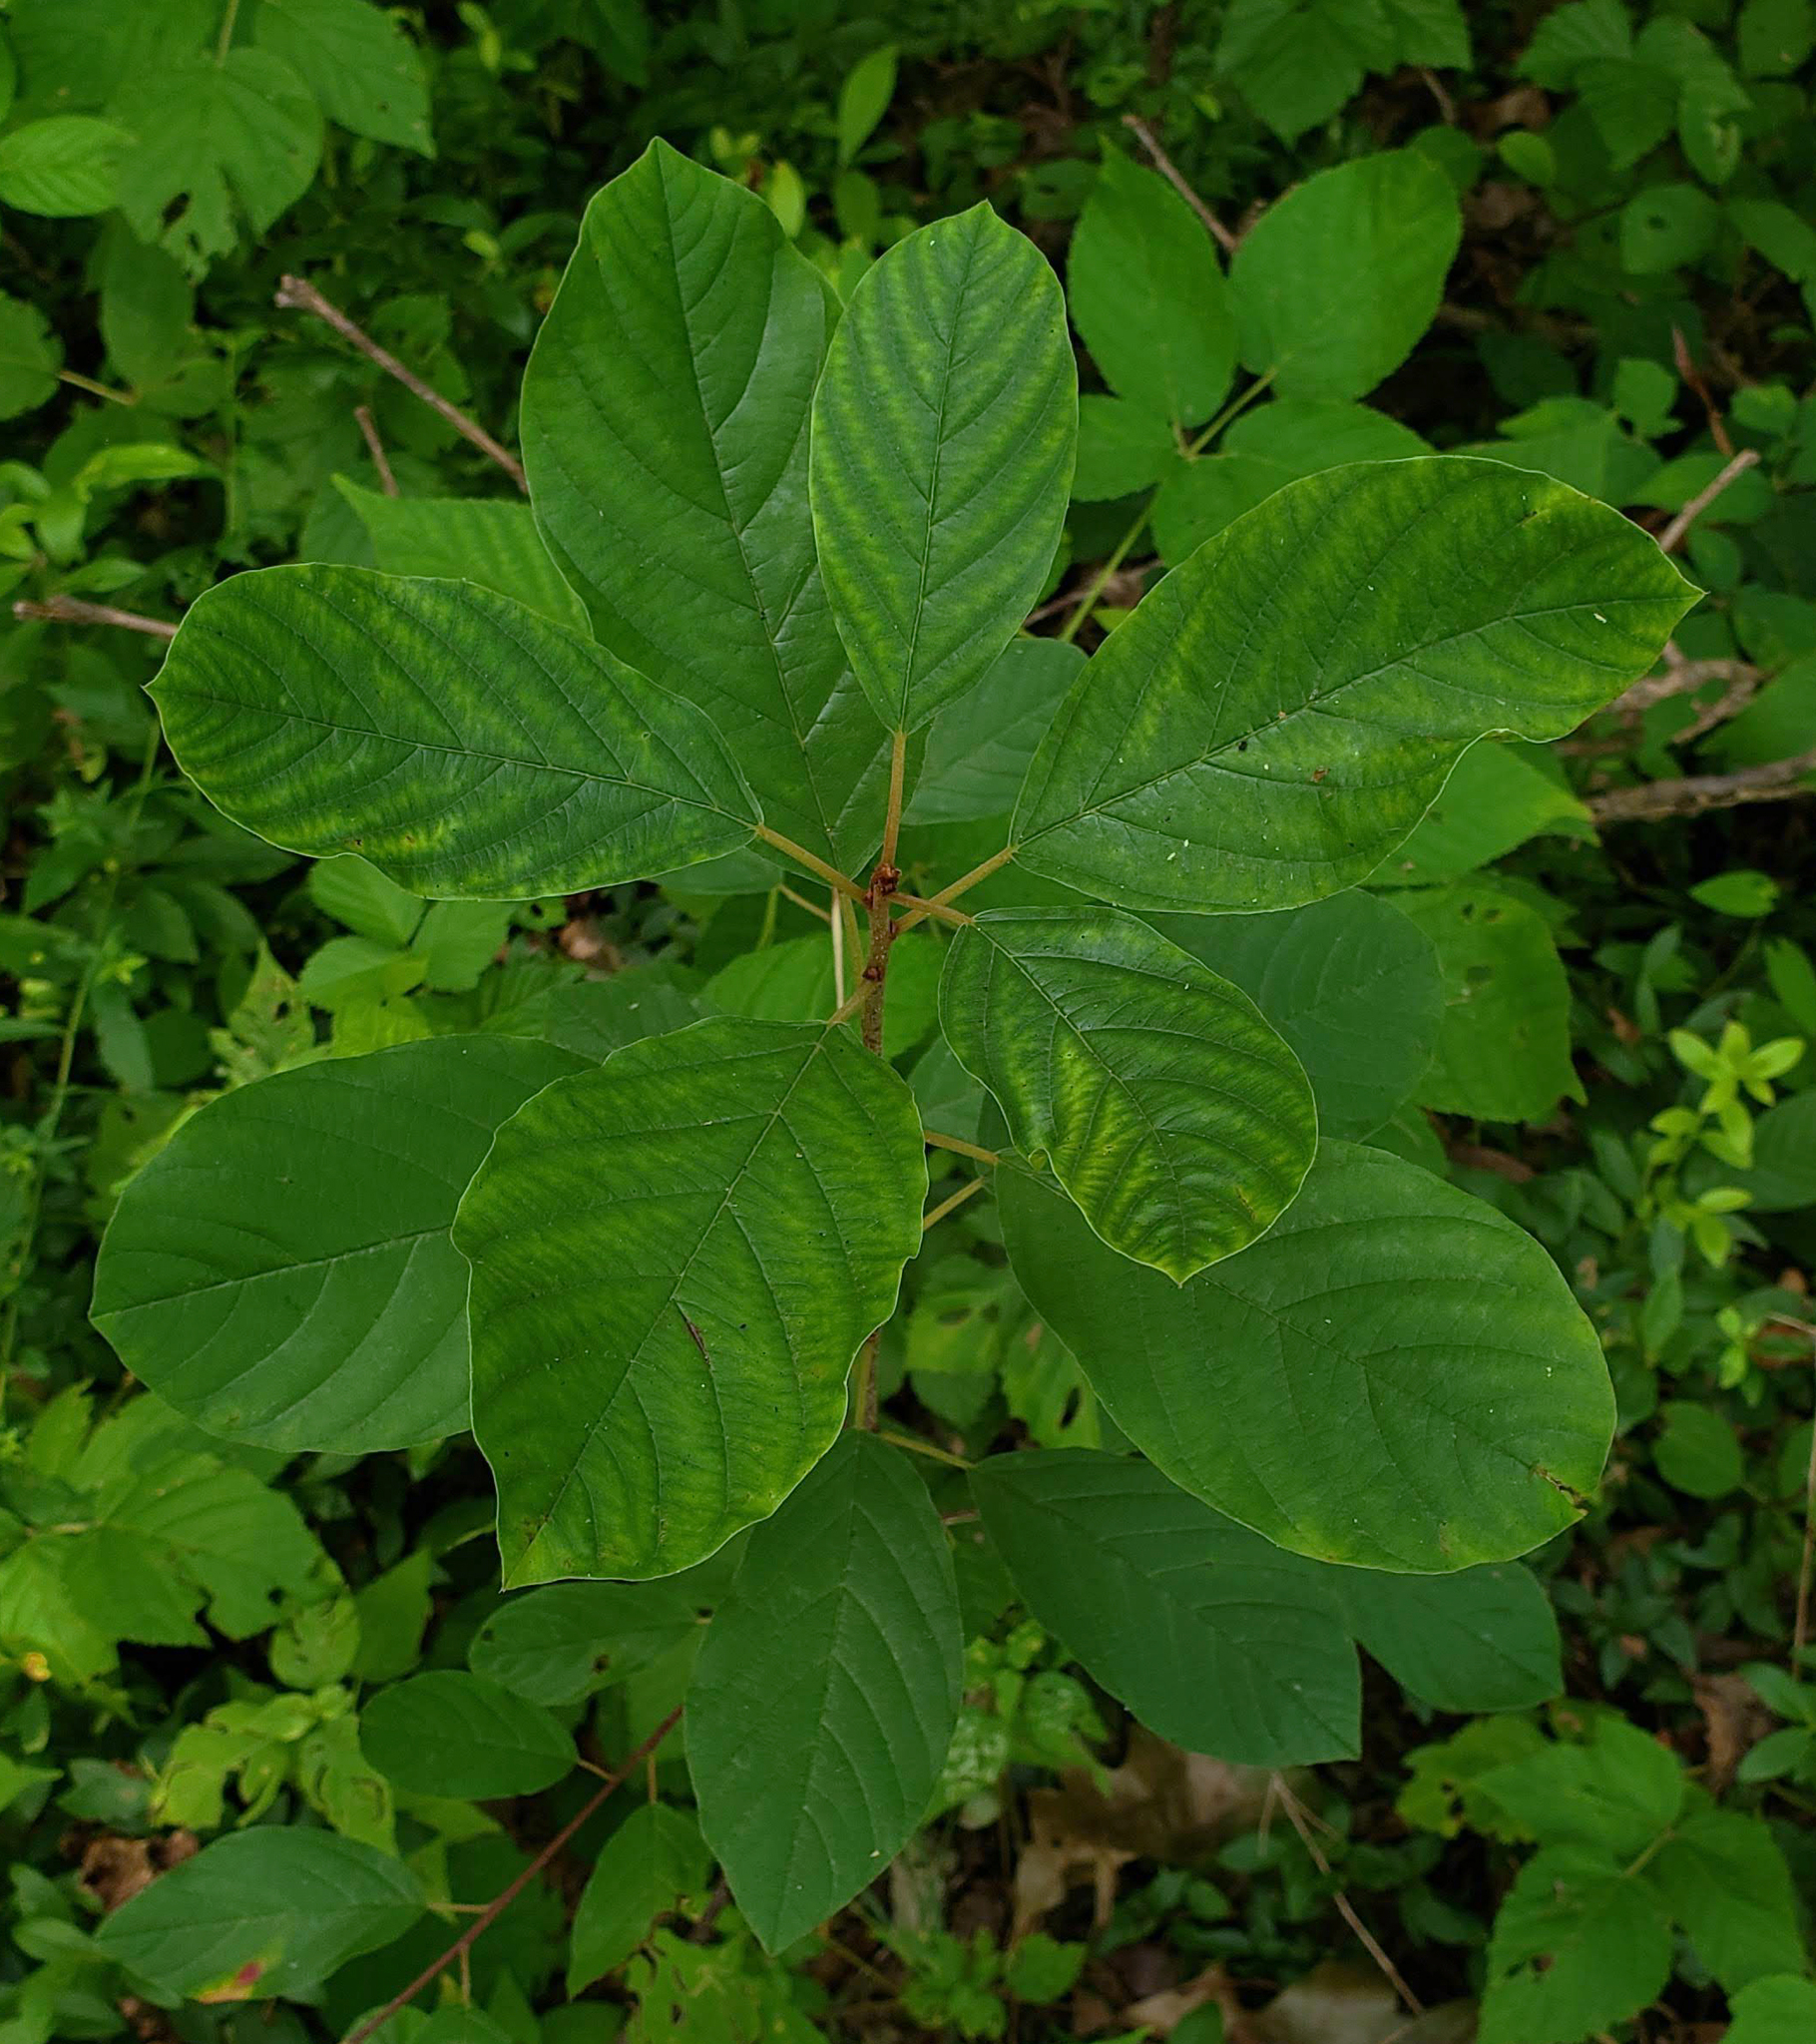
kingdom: Plantae
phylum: Tracheophyta
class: Magnoliopsida
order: Rosales
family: Rhamnaceae
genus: Frangula
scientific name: Frangula alnus
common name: Alder buckthorn
